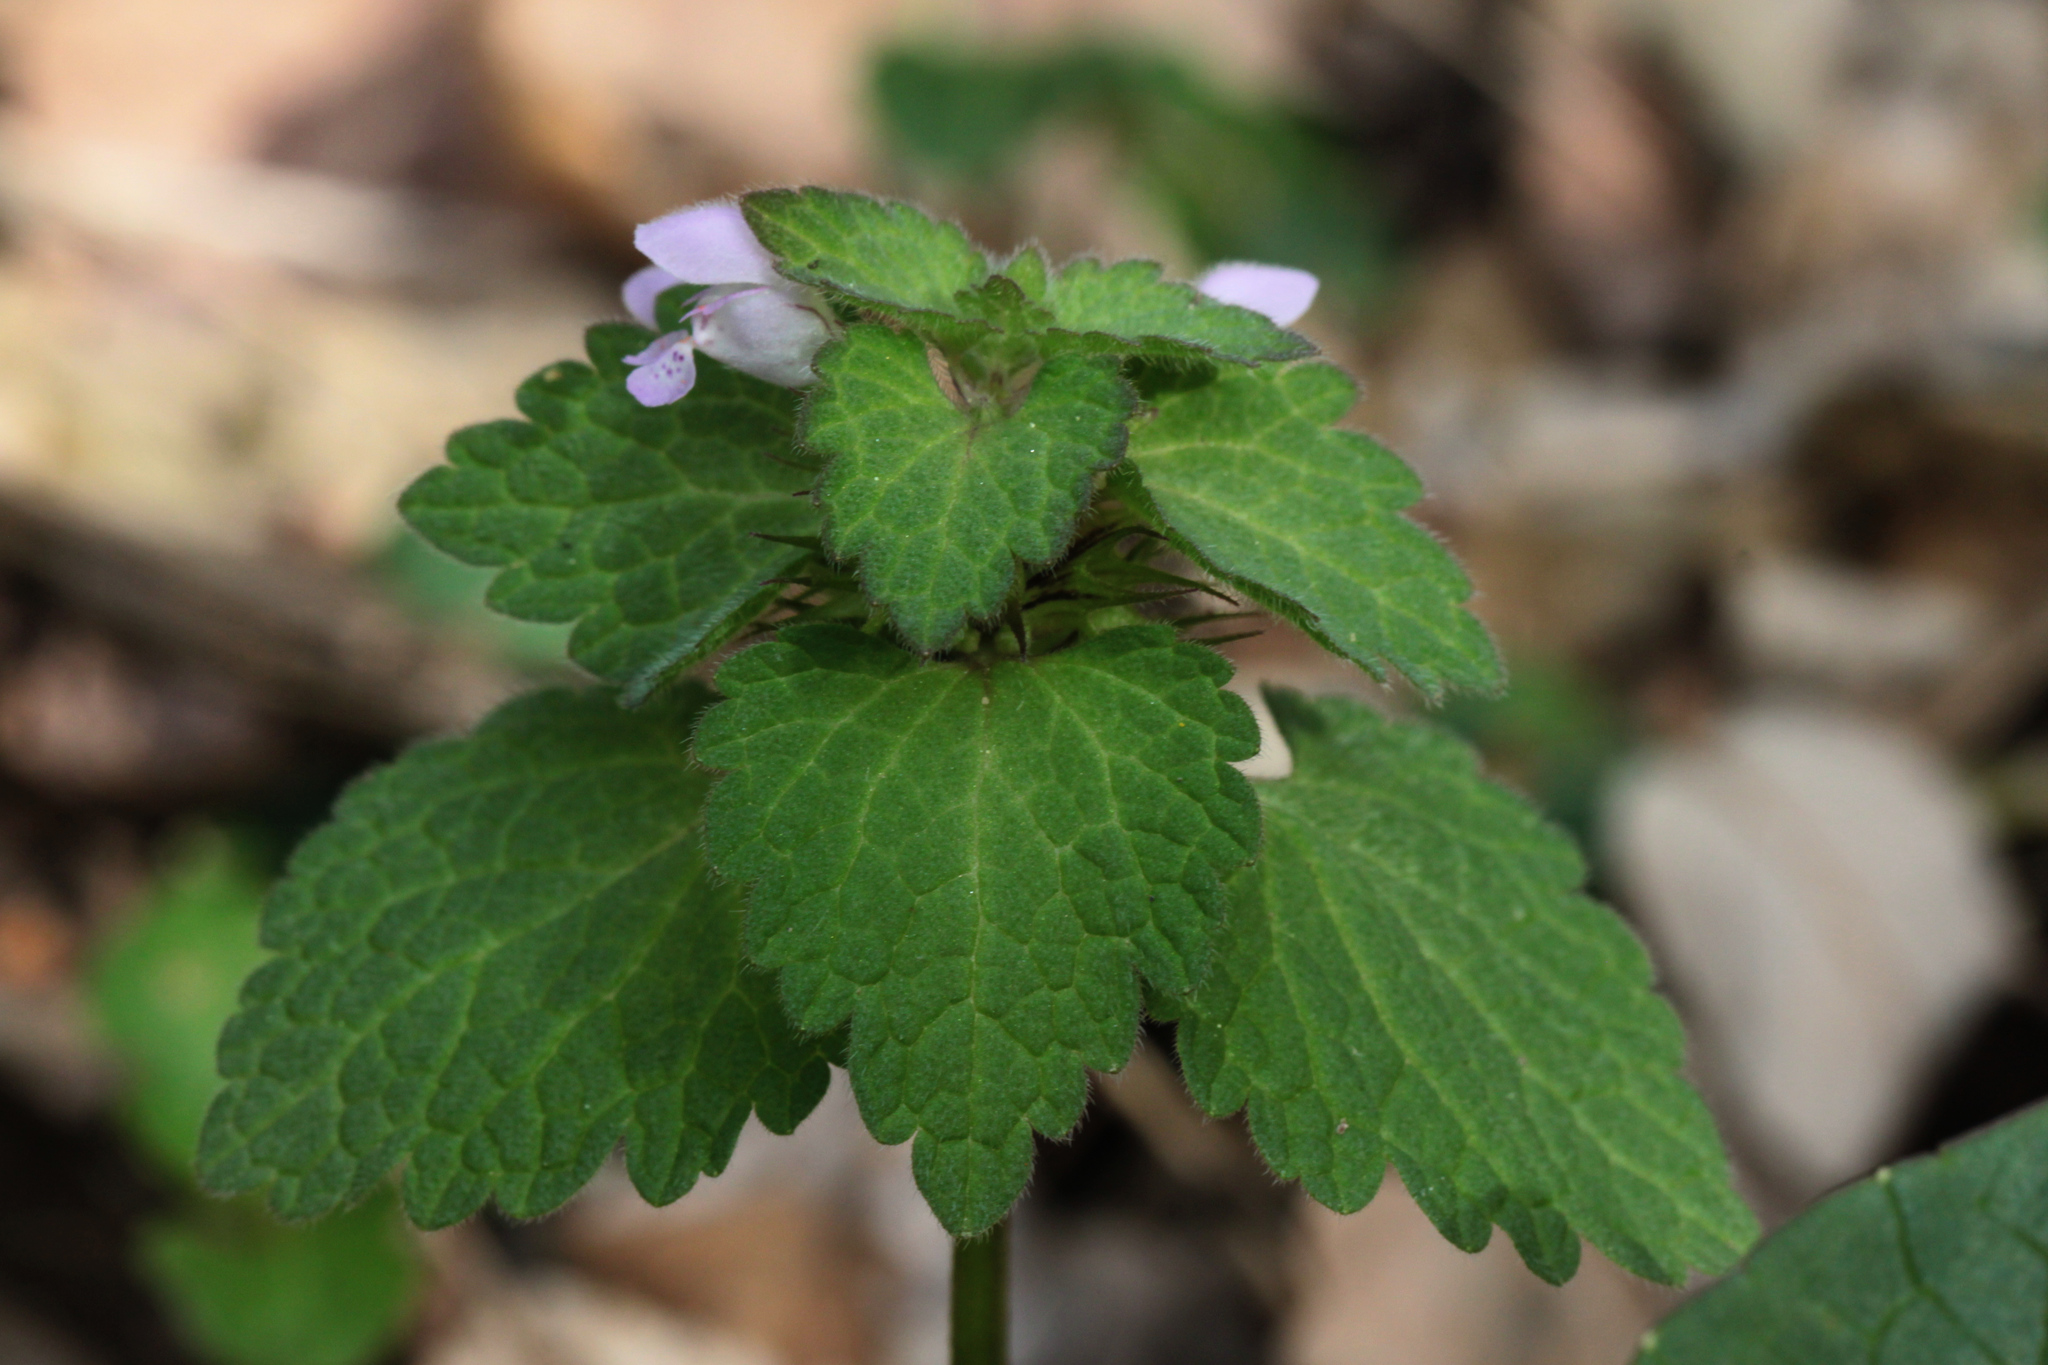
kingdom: Plantae
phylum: Tracheophyta
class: Magnoliopsida
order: Lamiales
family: Lamiaceae
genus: Lamium
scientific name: Lamium purpureum
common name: Red dead-nettle
